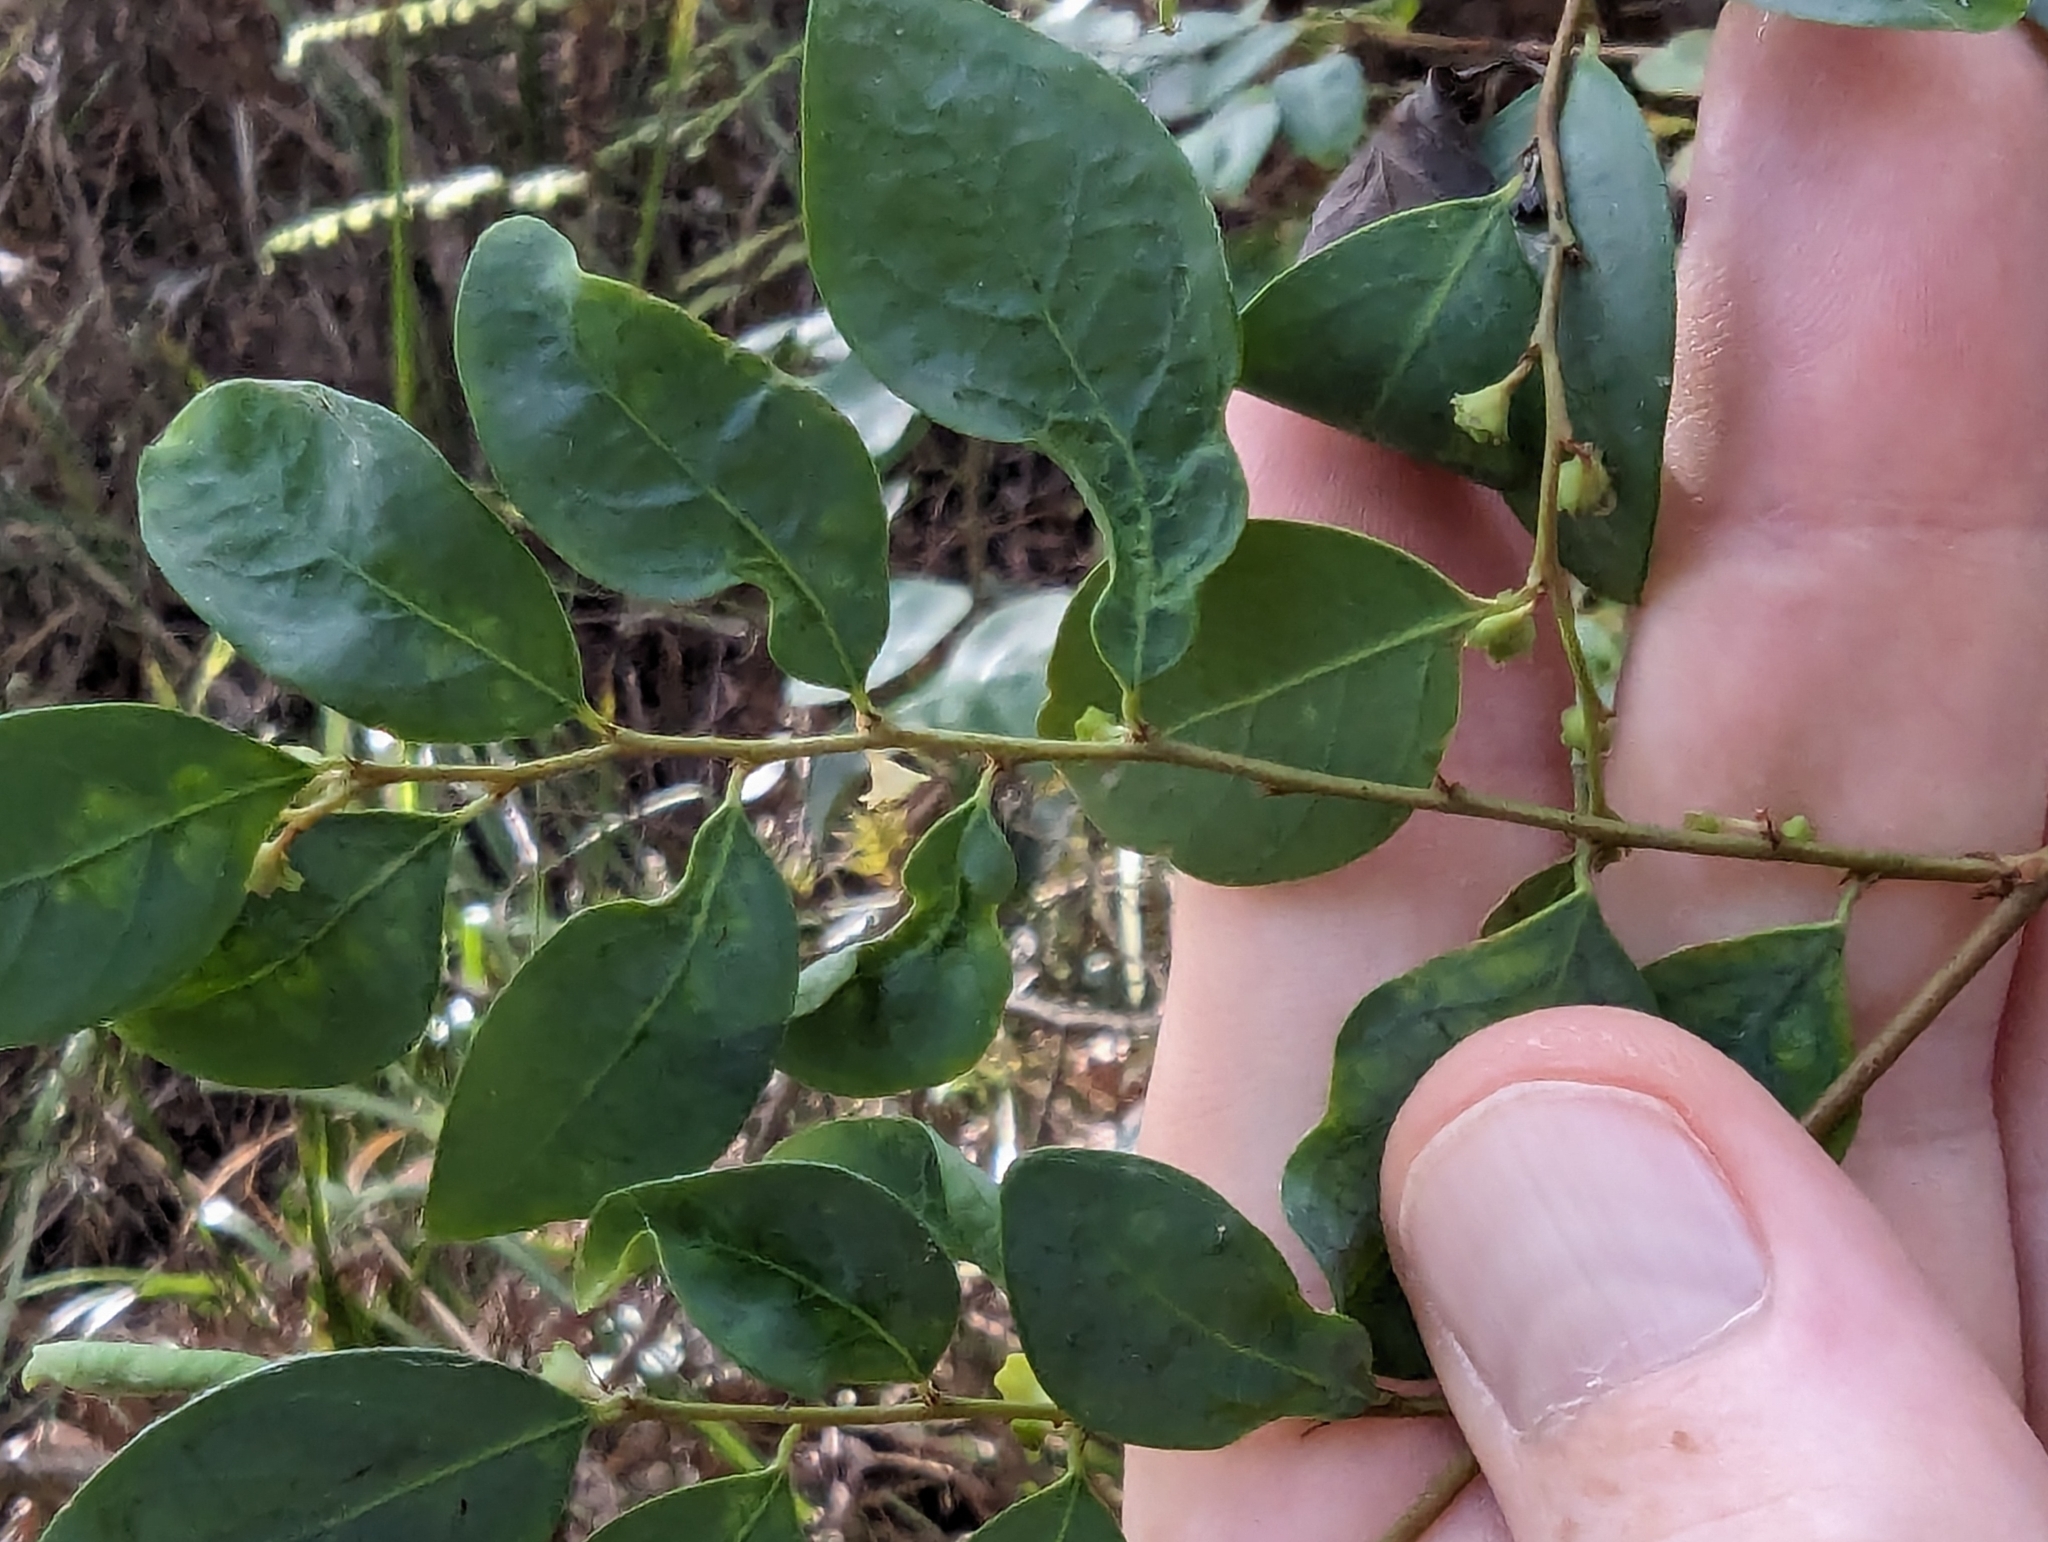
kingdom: Plantae
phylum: Tracheophyta
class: Magnoliopsida
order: Malpighiales
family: Phyllanthaceae
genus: Breynia
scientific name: Breynia oblongifolia
